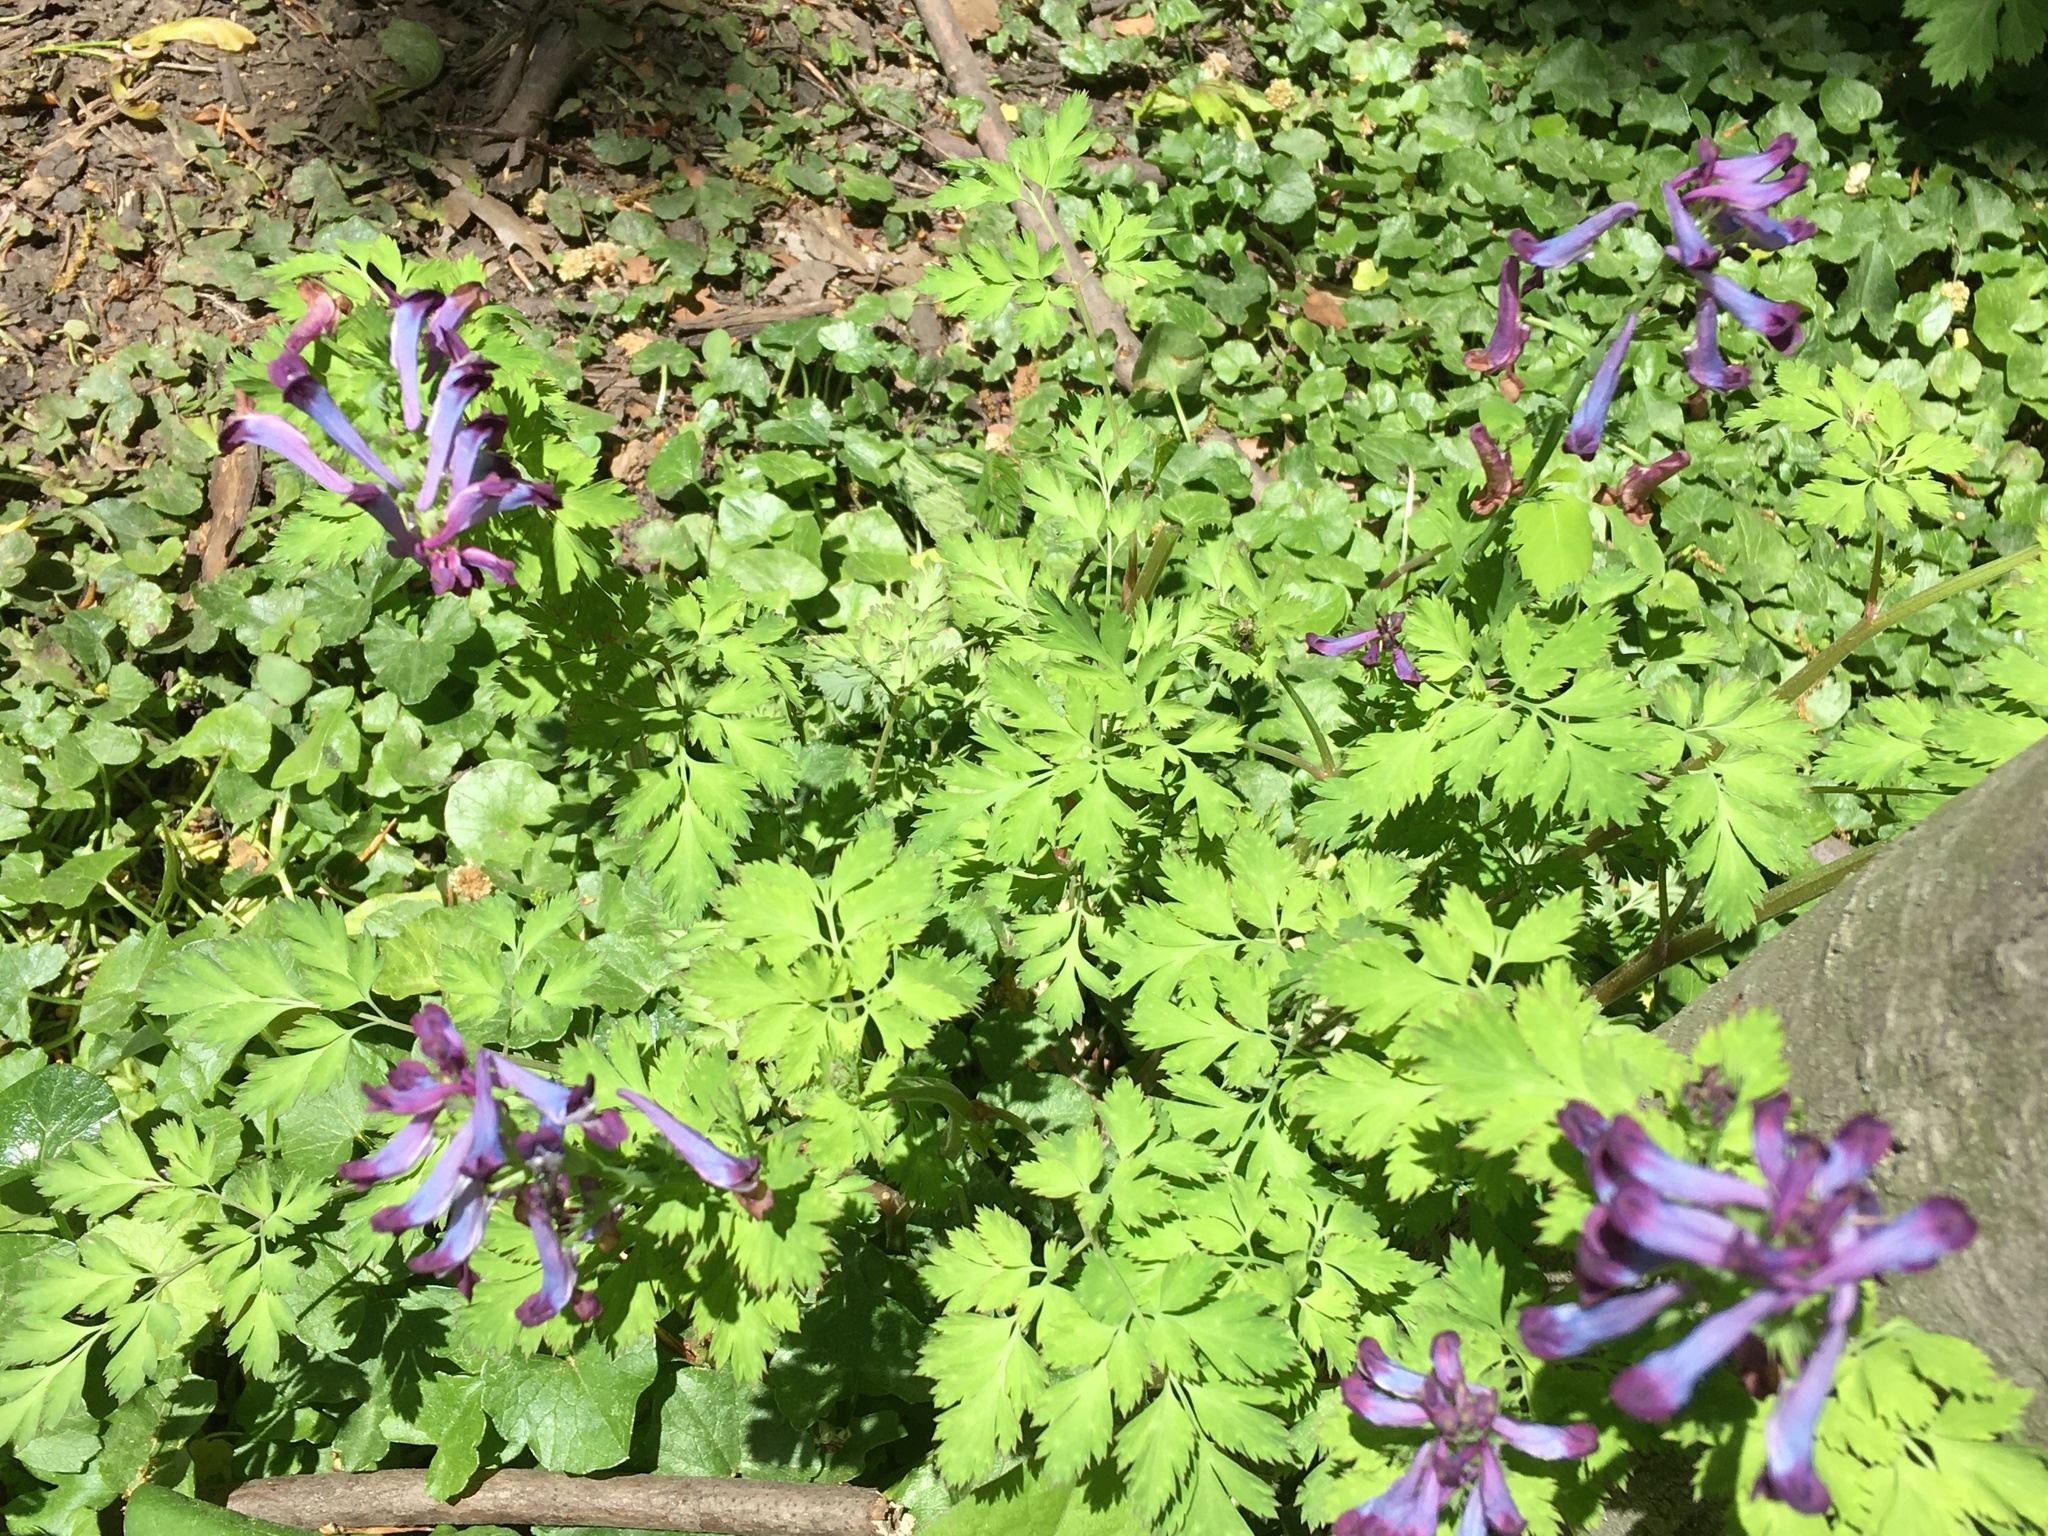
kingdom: Plantae
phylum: Tracheophyta
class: Magnoliopsida
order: Ranunculales
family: Papaveraceae
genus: Corydalis
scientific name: Corydalis incisa
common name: Incised fumewort
